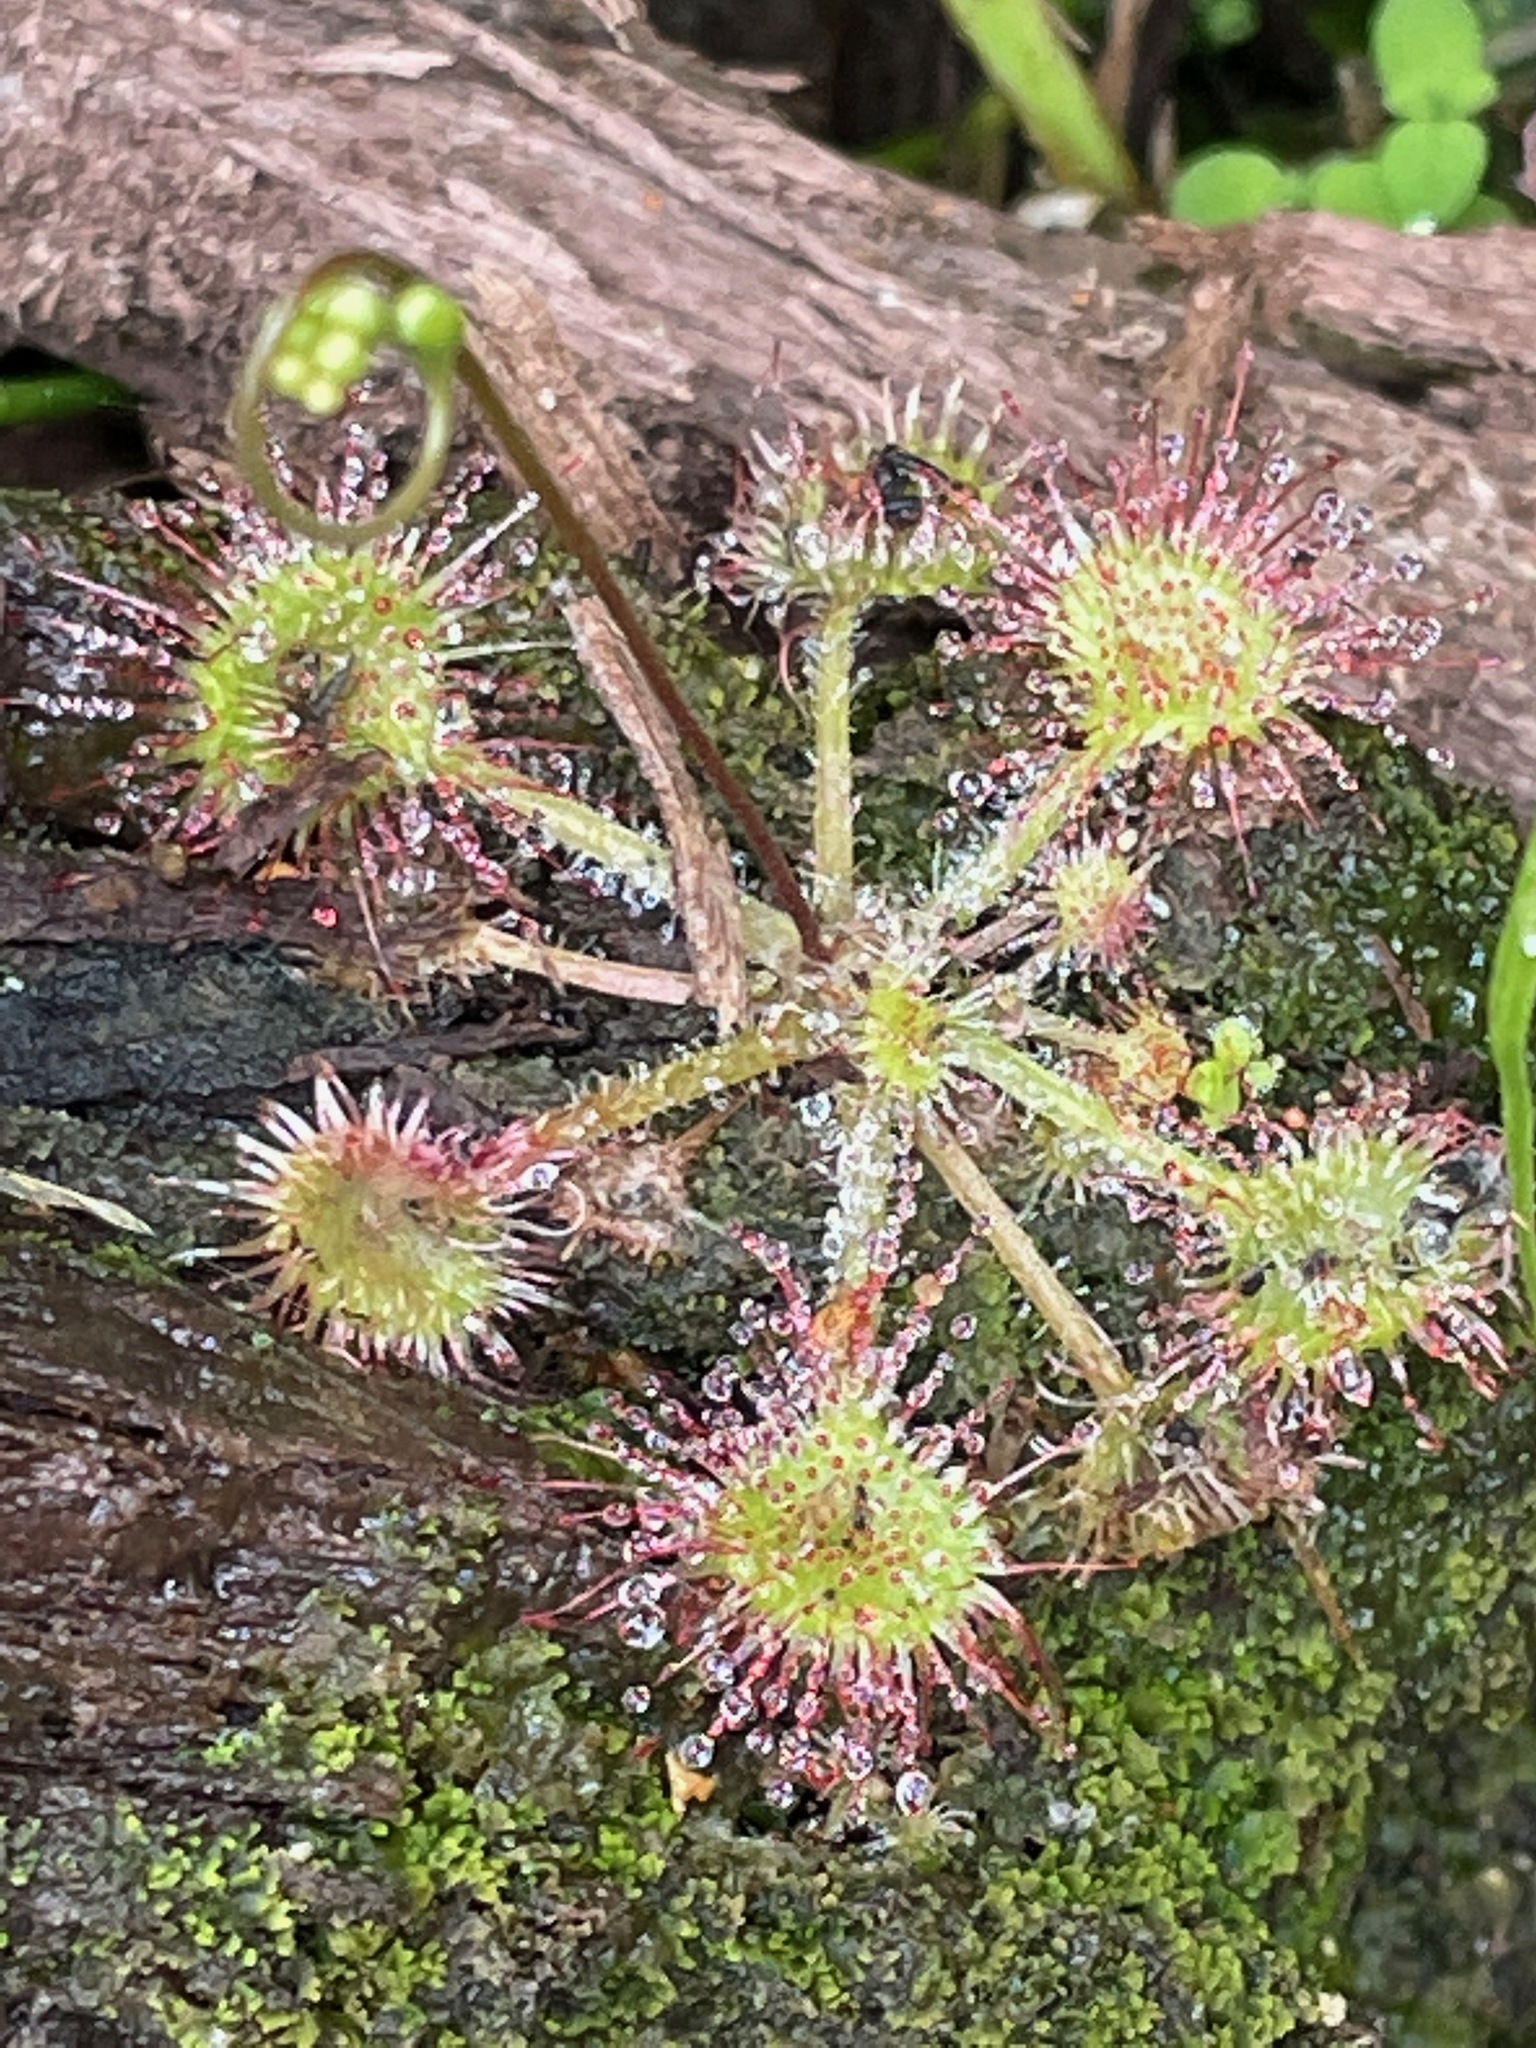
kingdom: Plantae
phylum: Tracheophyta
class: Magnoliopsida
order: Caryophyllales
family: Droseraceae
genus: Drosera
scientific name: Drosera rotundifolia
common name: Round-leaved sundew
